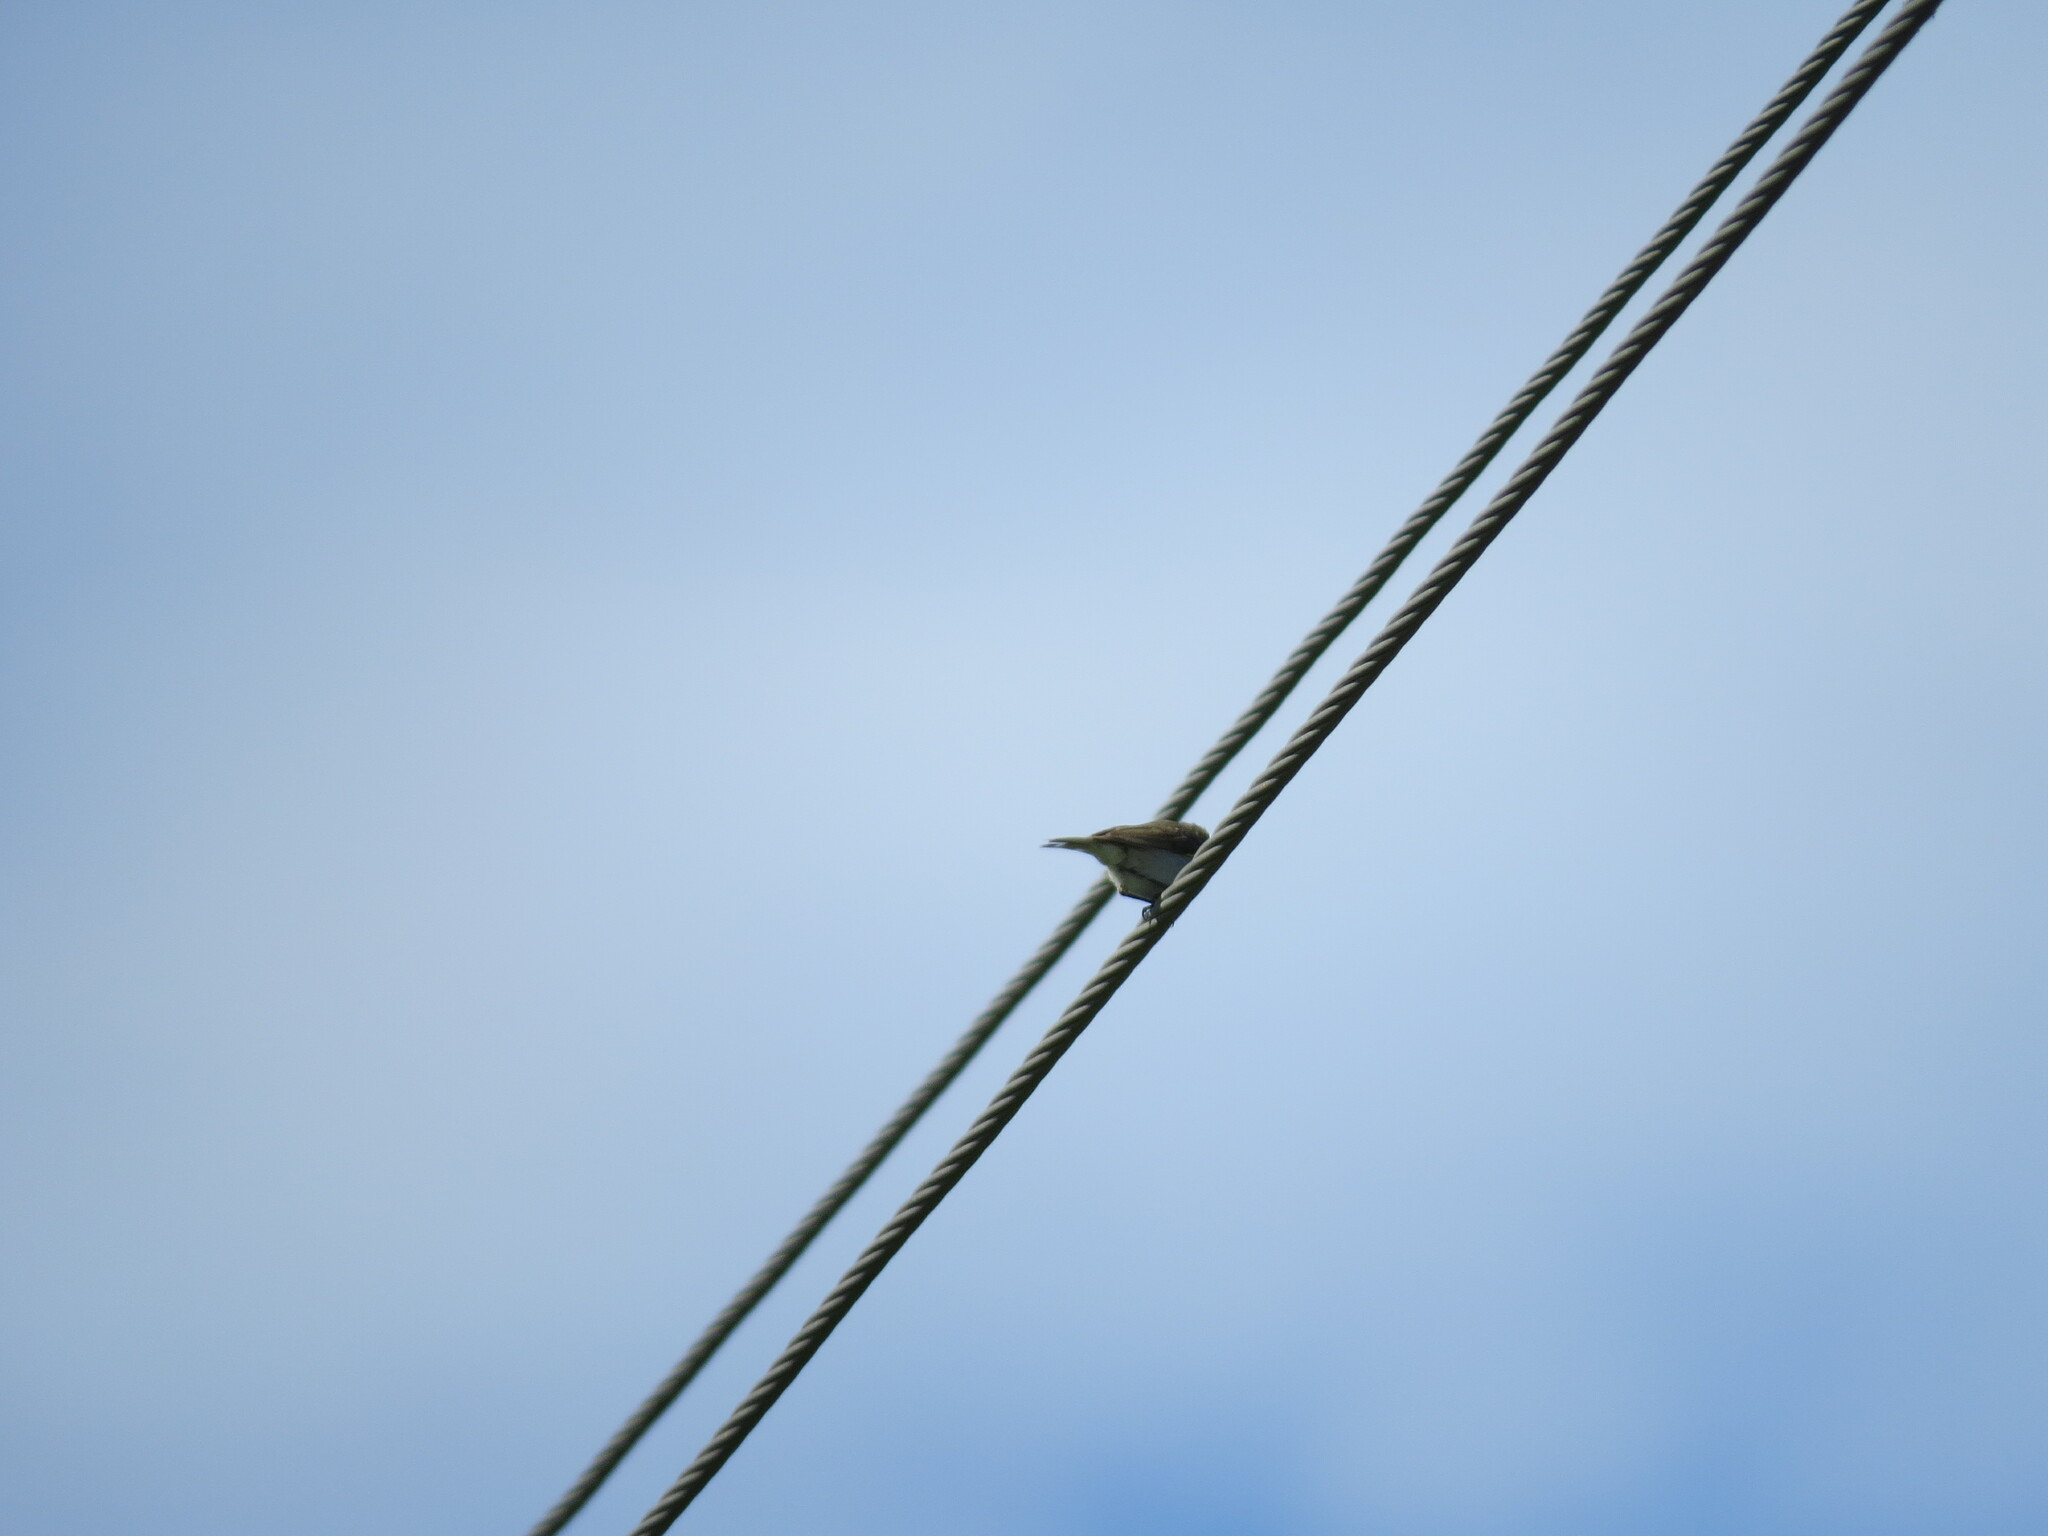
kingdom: Animalia
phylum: Chordata
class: Aves
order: Passeriformes
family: Phylloscopidae
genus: Phylloscopus
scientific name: Phylloscopus collybita
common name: Common chiffchaff
